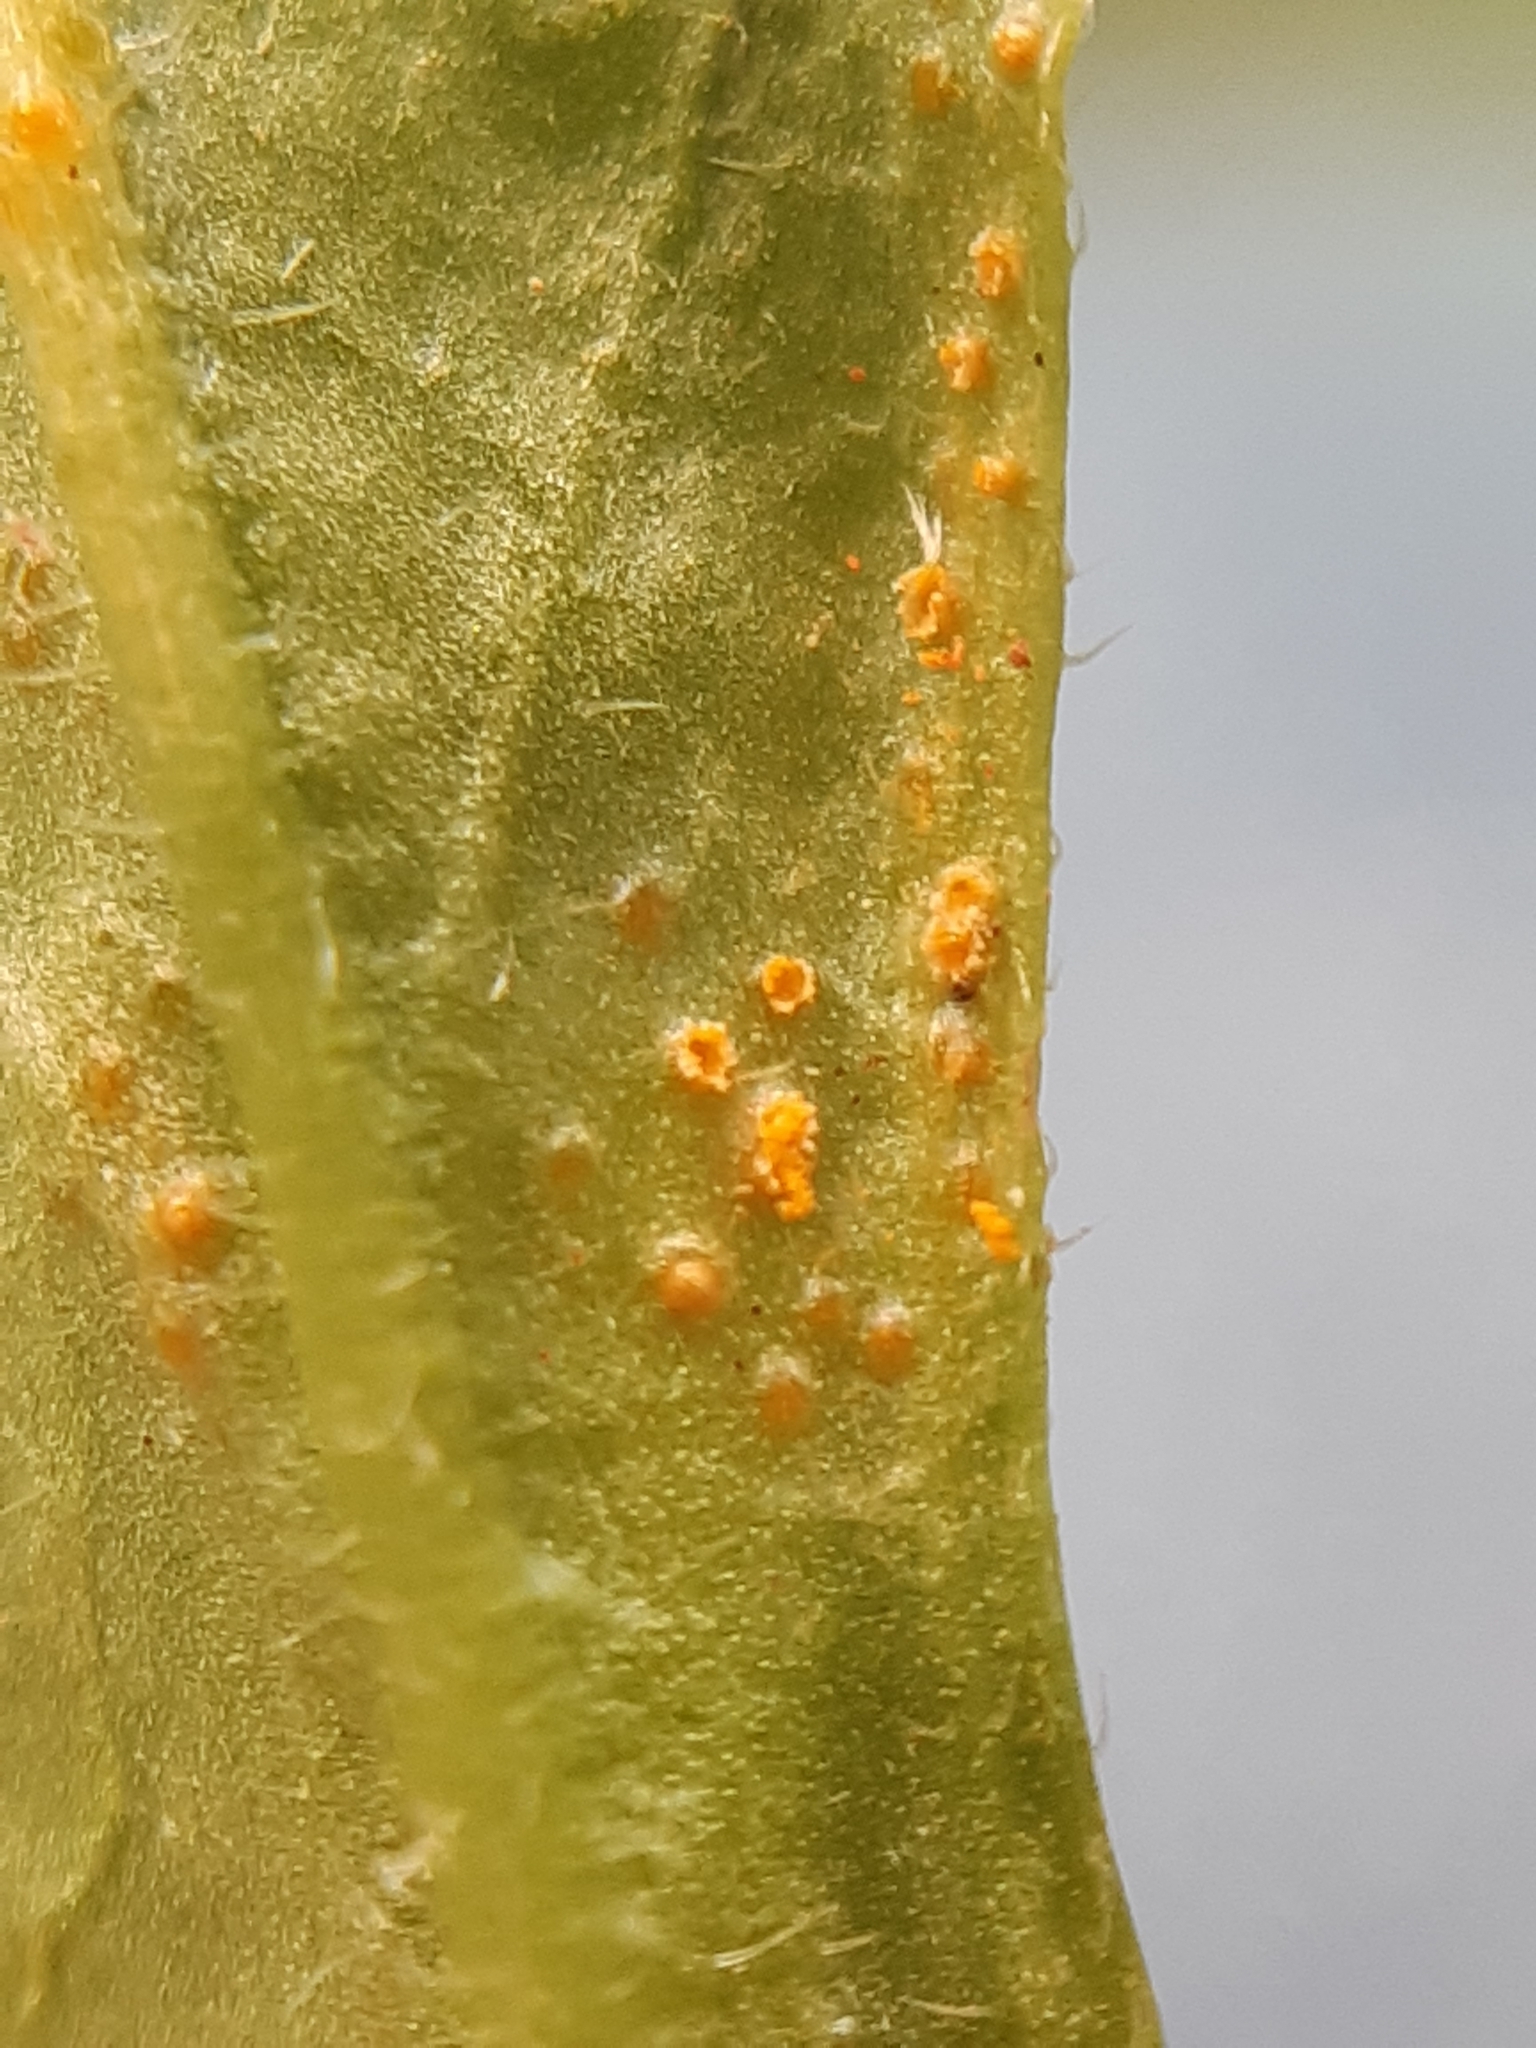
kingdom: Fungi
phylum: Basidiomycota
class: Pucciniomycetes
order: Pucciniales
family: Pucciniaceae
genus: Puccinia
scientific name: Puccinia lagenophorae
